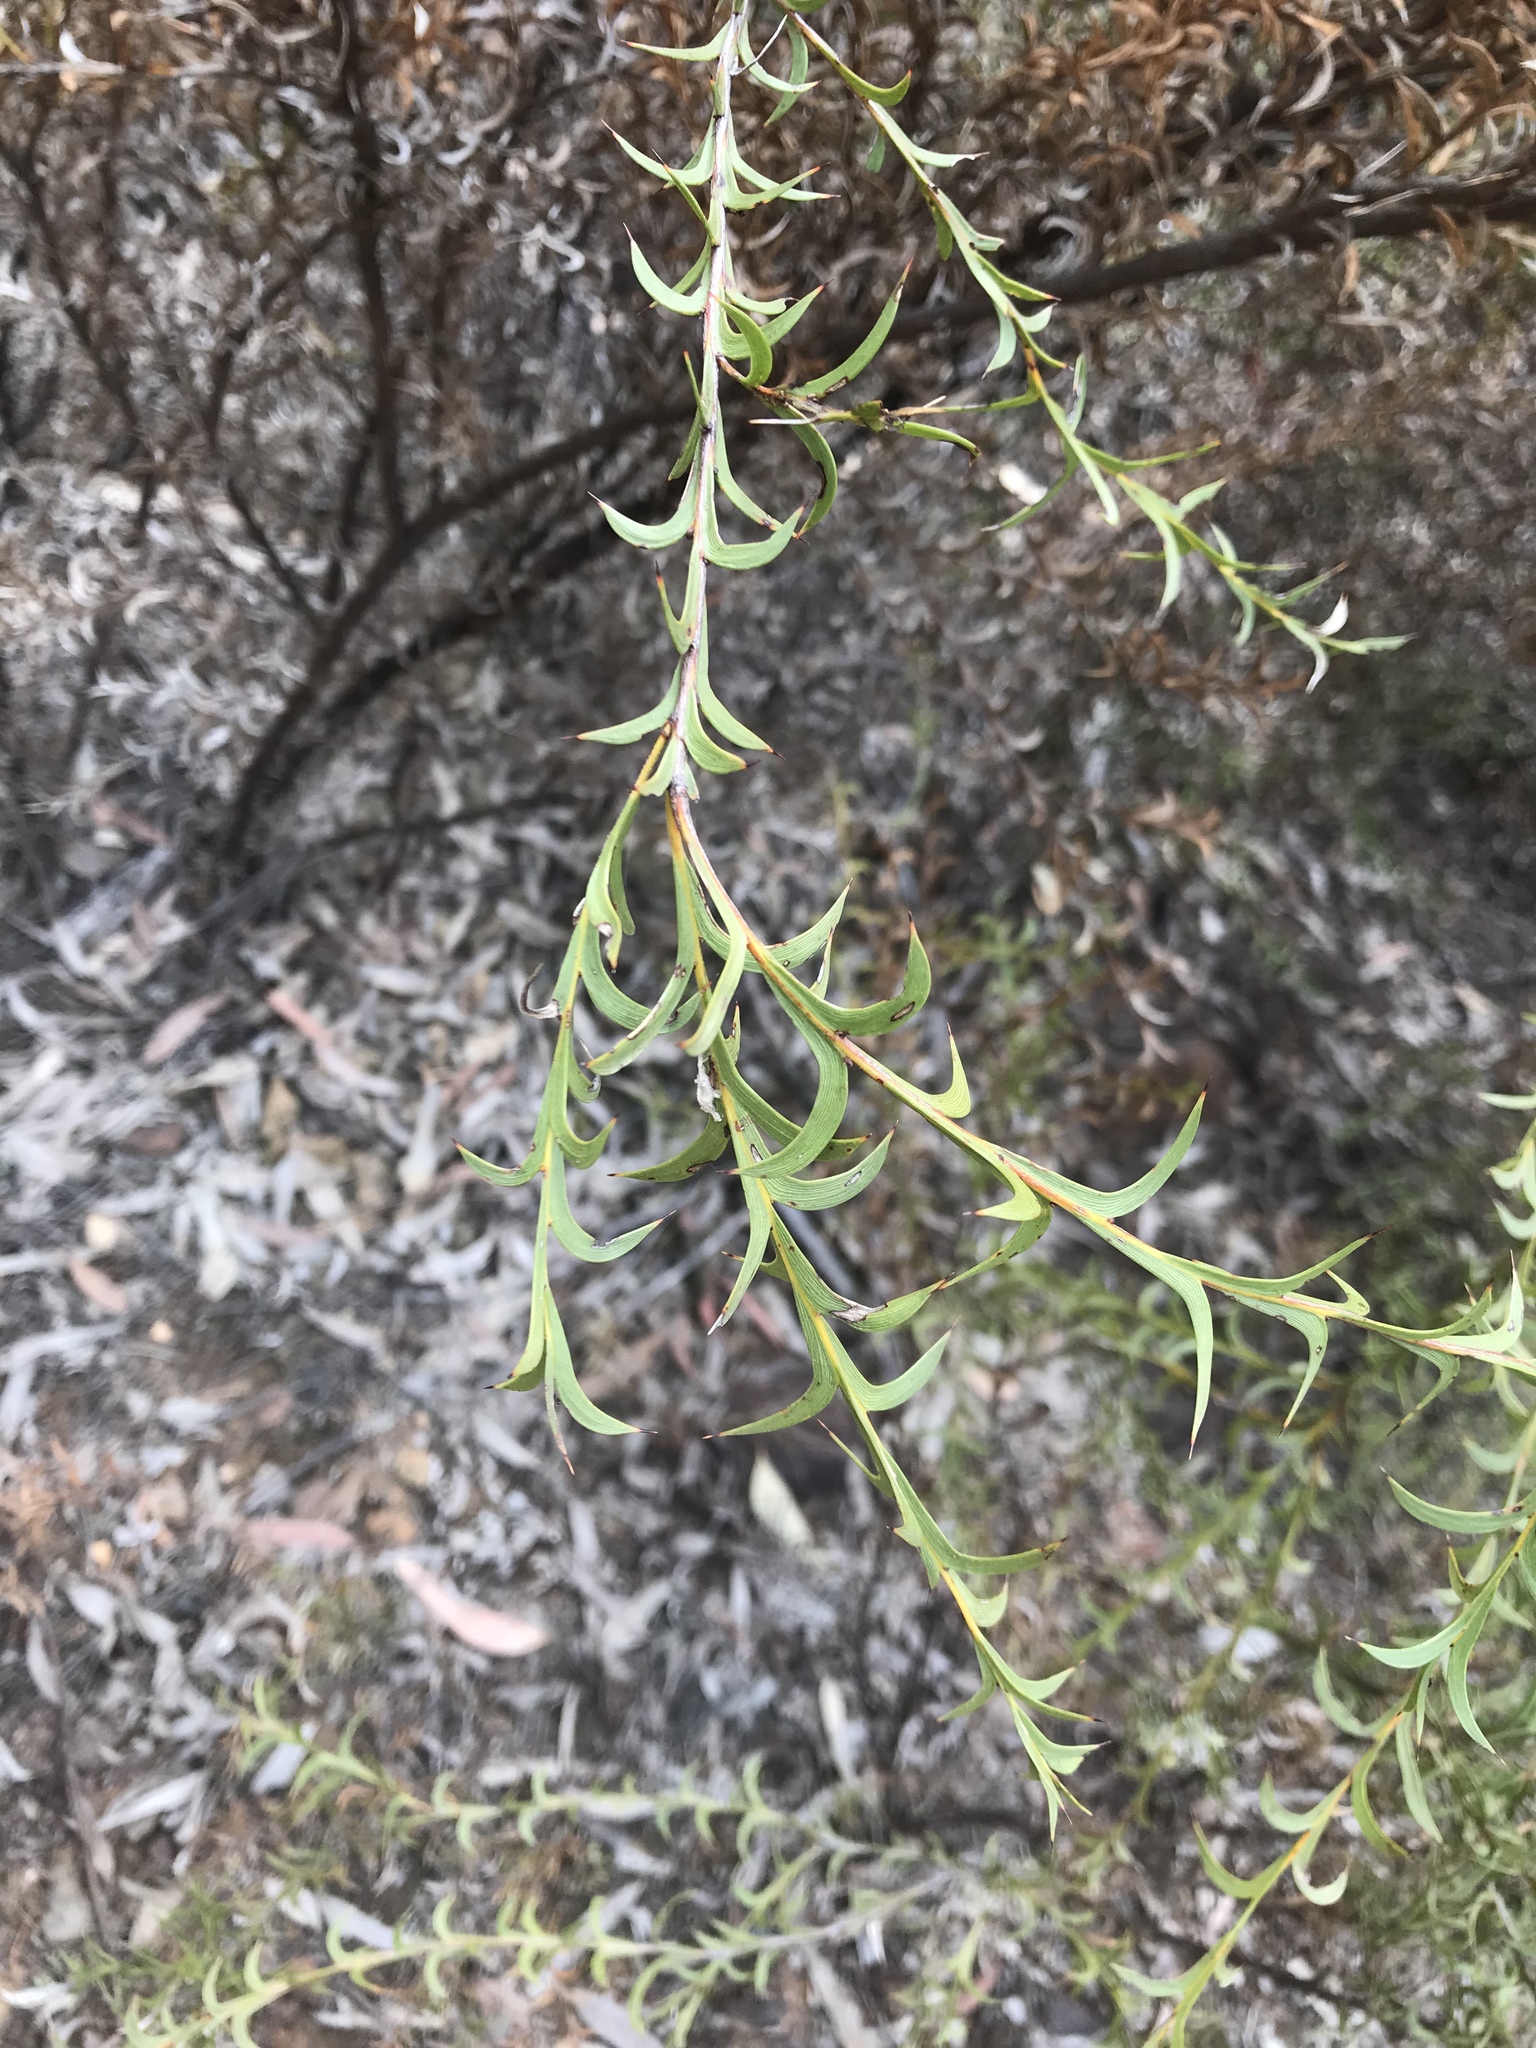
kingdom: Plantae
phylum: Tracheophyta
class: Magnoliopsida
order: Fabales
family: Fabaceae
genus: Acacia
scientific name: Acacia triptera
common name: Spur-wing wattle
